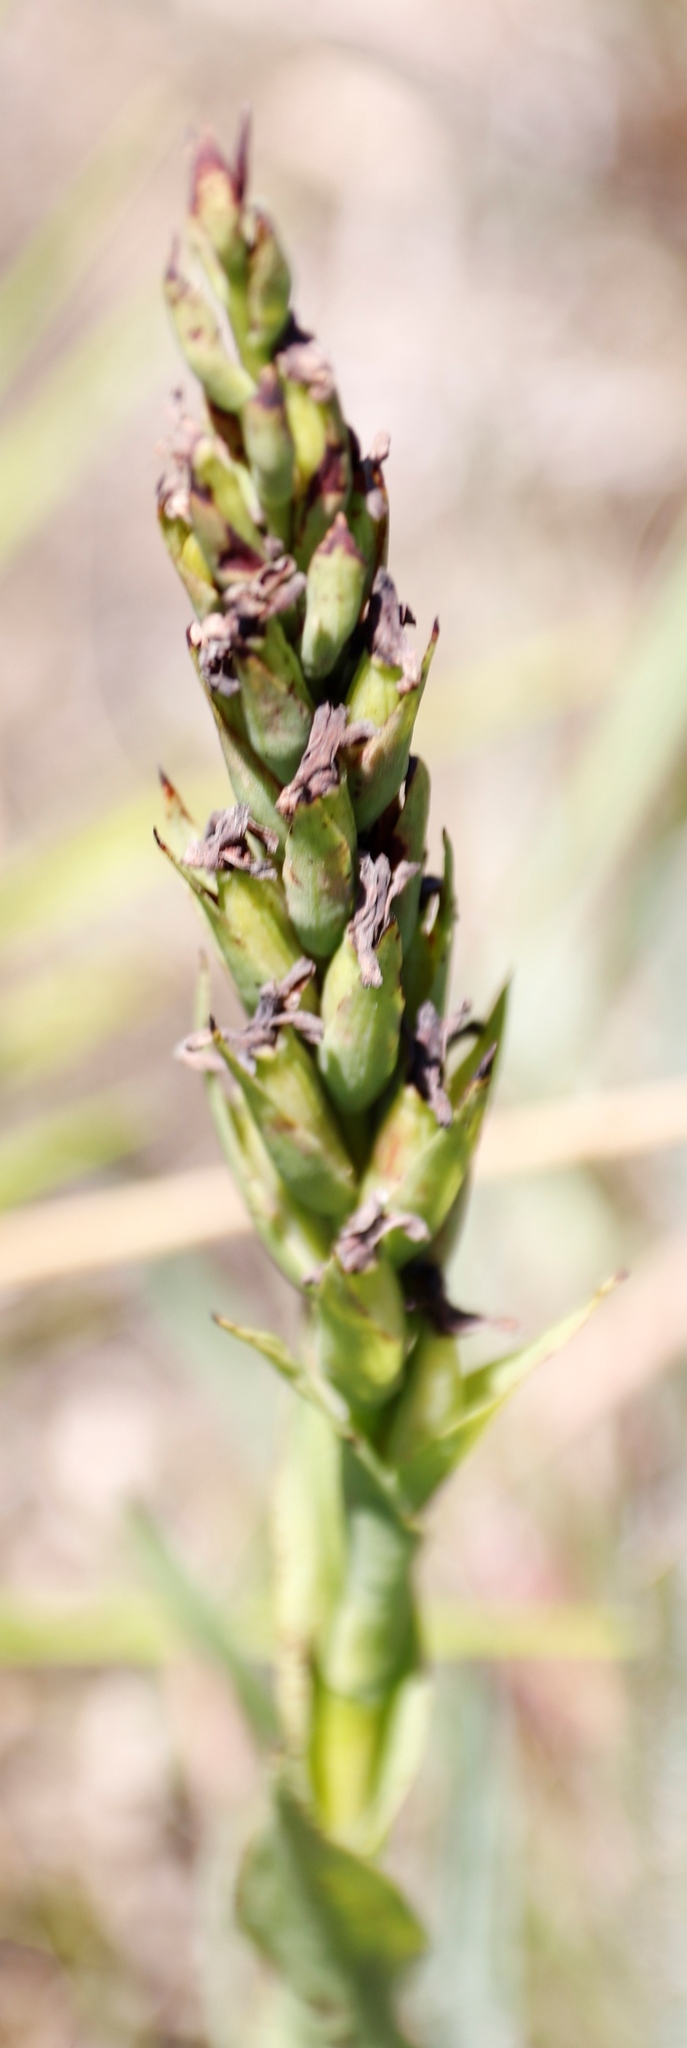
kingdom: Plantae
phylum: Tracheophyta
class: Liliopsida
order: Asparagales
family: Orchidaceae
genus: Disa
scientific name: Disa stachyoides
